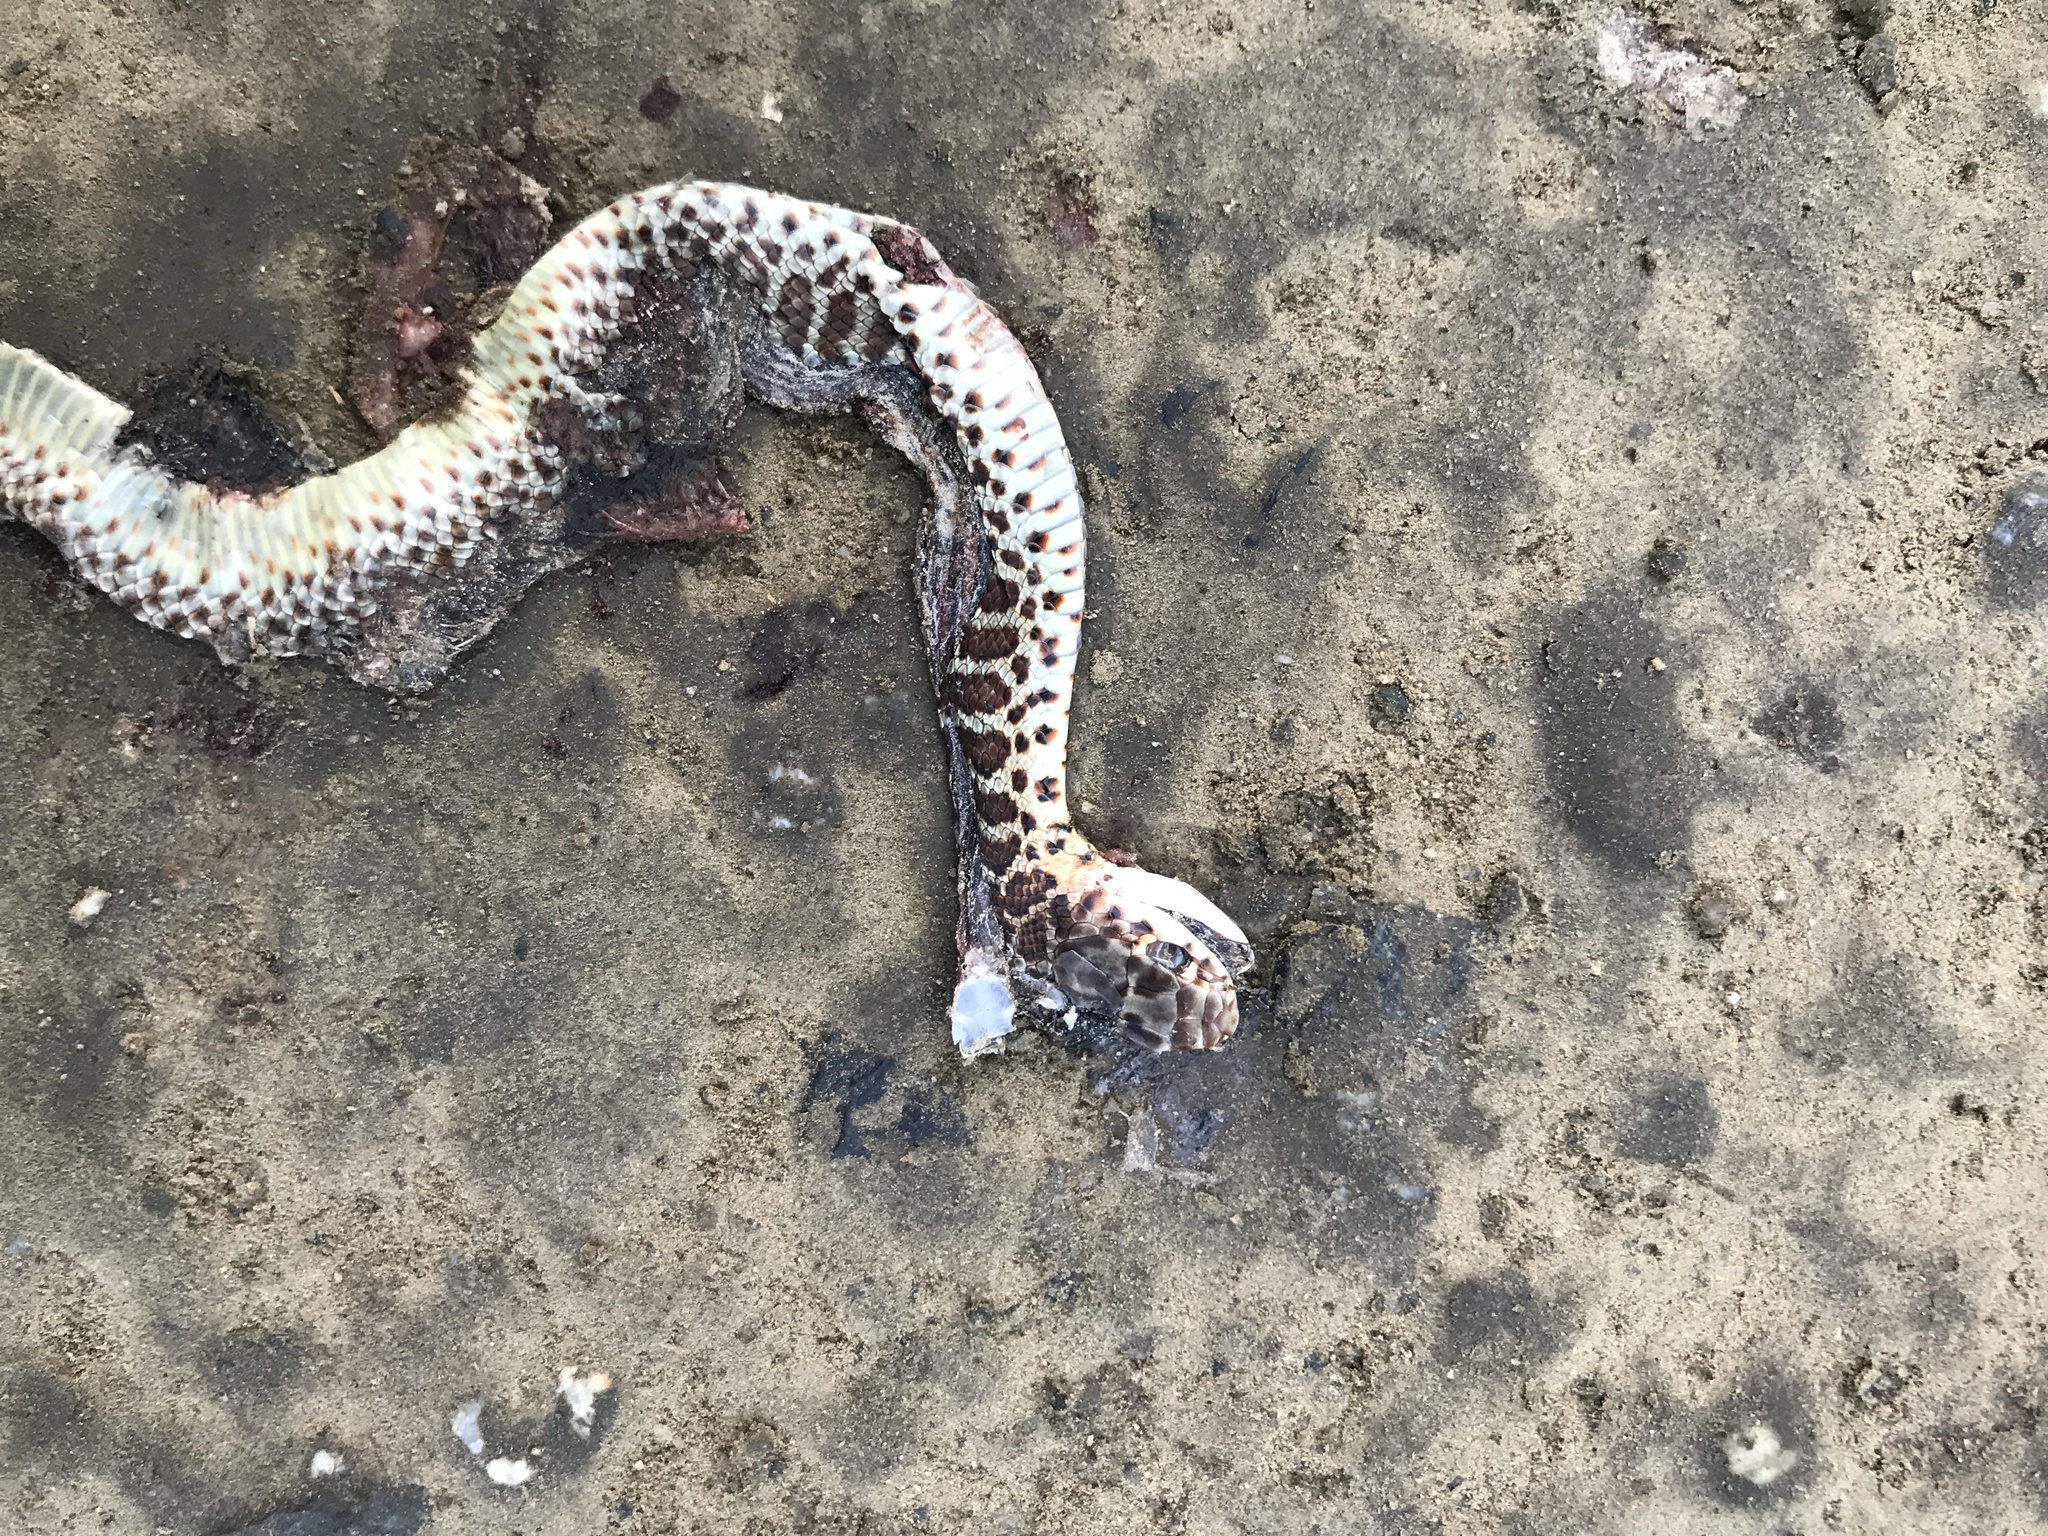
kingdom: Animalia
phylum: Chordata
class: Squamata
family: Colubridae
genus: Coluber
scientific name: Coluber constrictor
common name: Eastern racer
